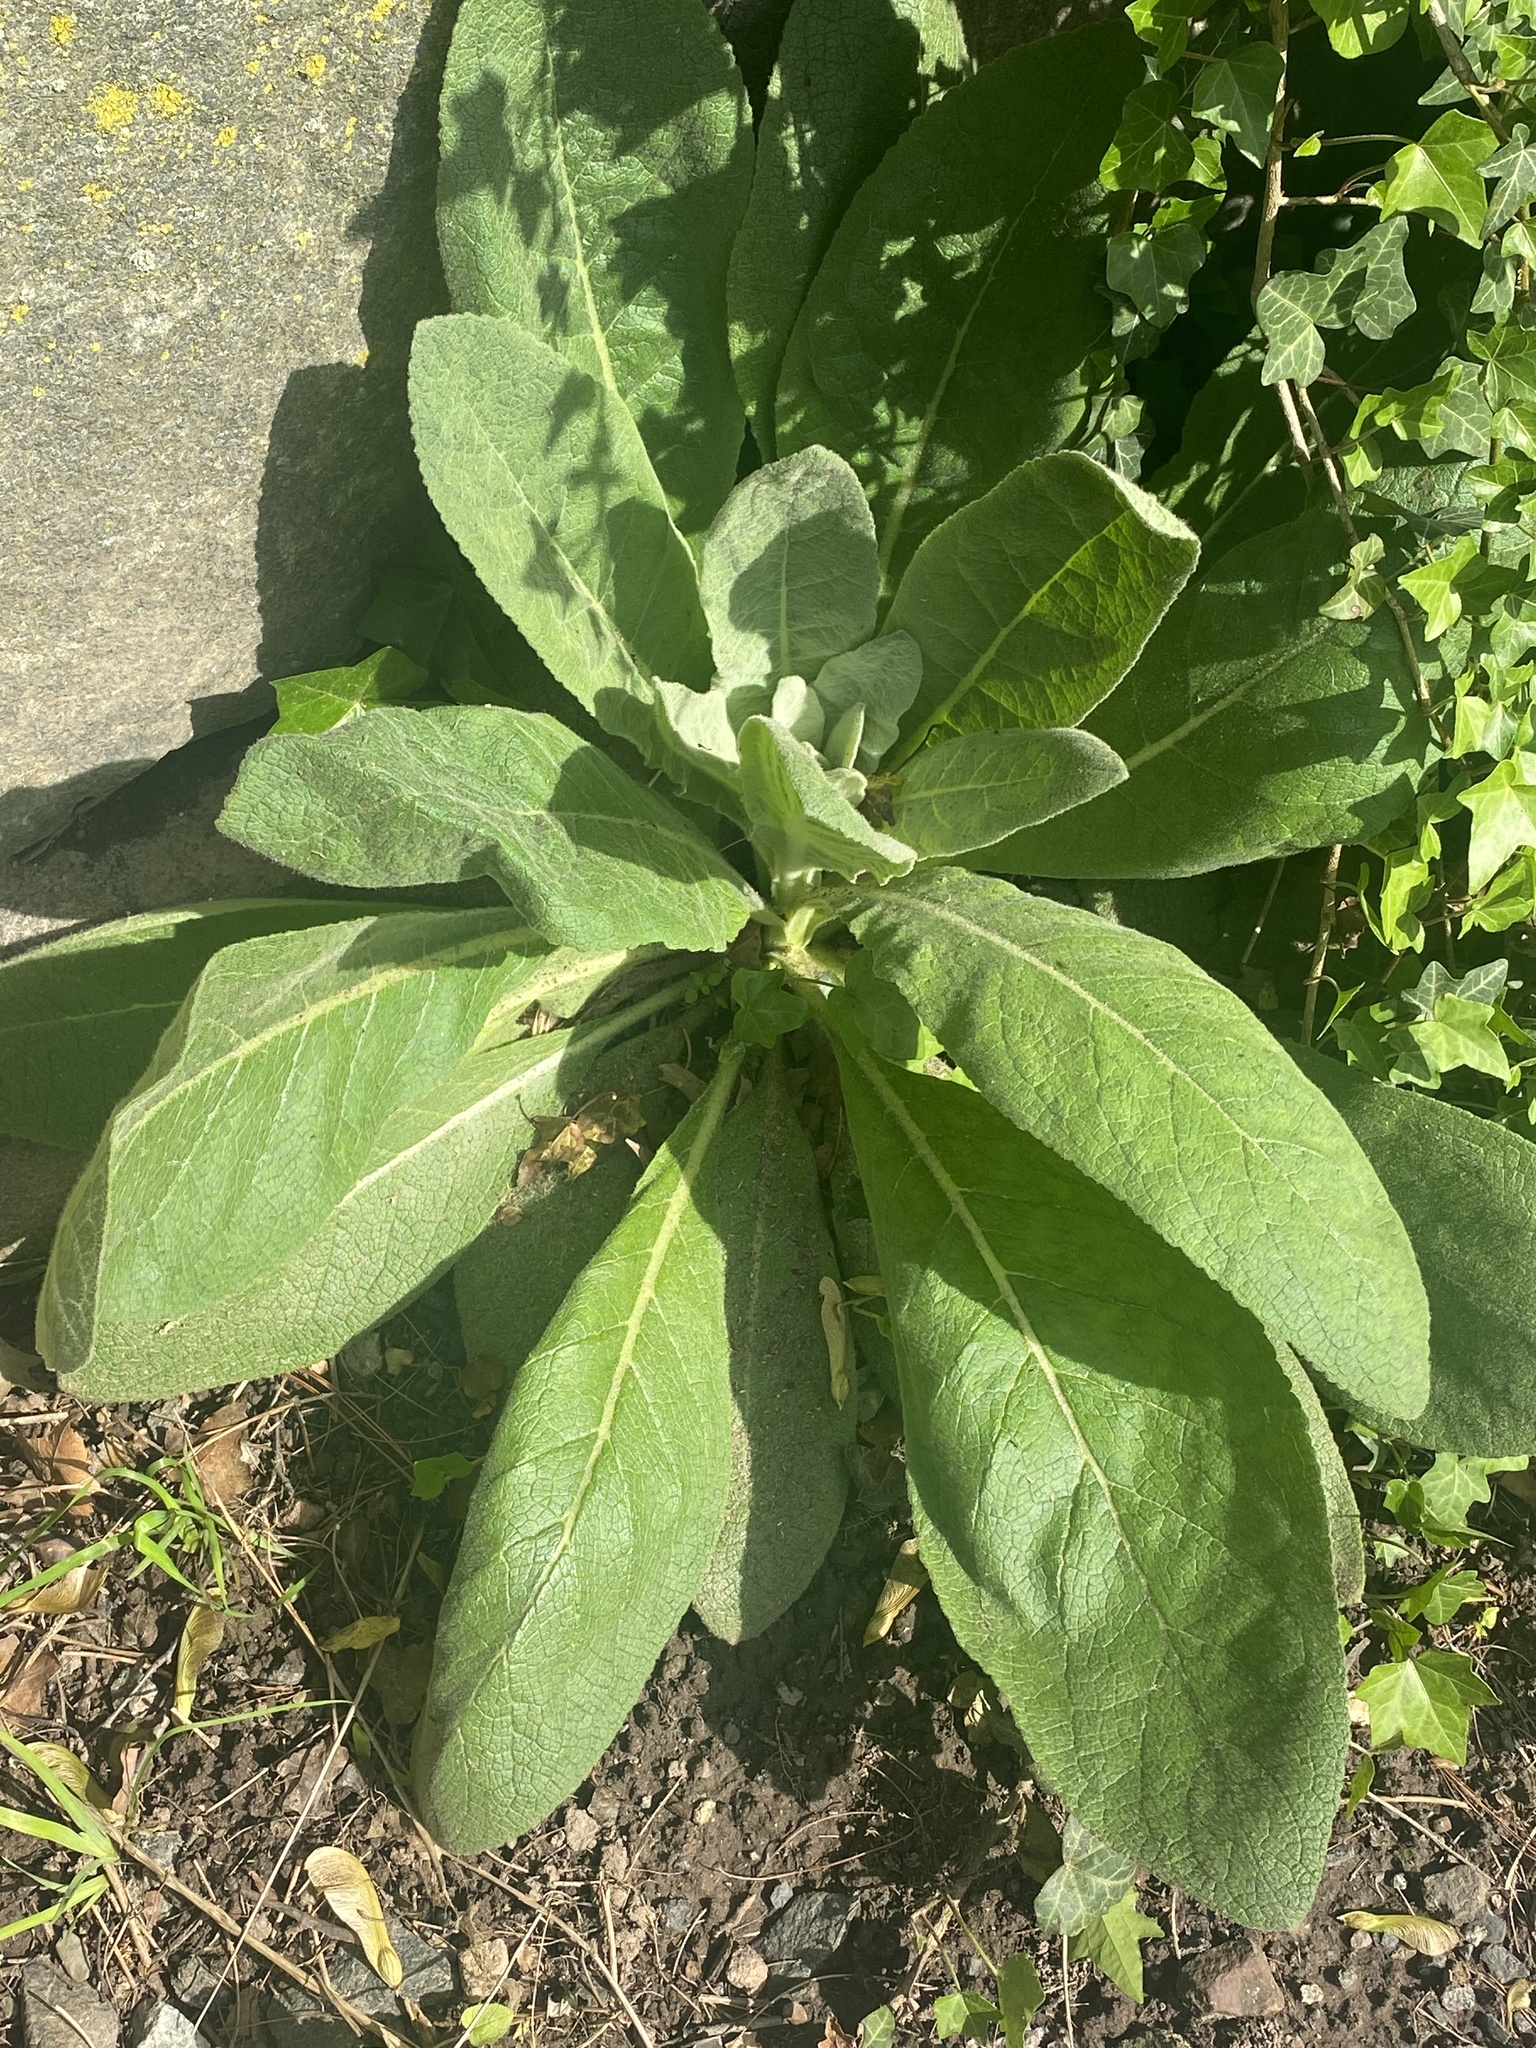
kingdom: Plantae
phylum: Tracheophyta
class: Magnoliopsida
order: Lamiales
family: Scrophulariaceae
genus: Verbascum
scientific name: Verbascum thapsus
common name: Common mullein
